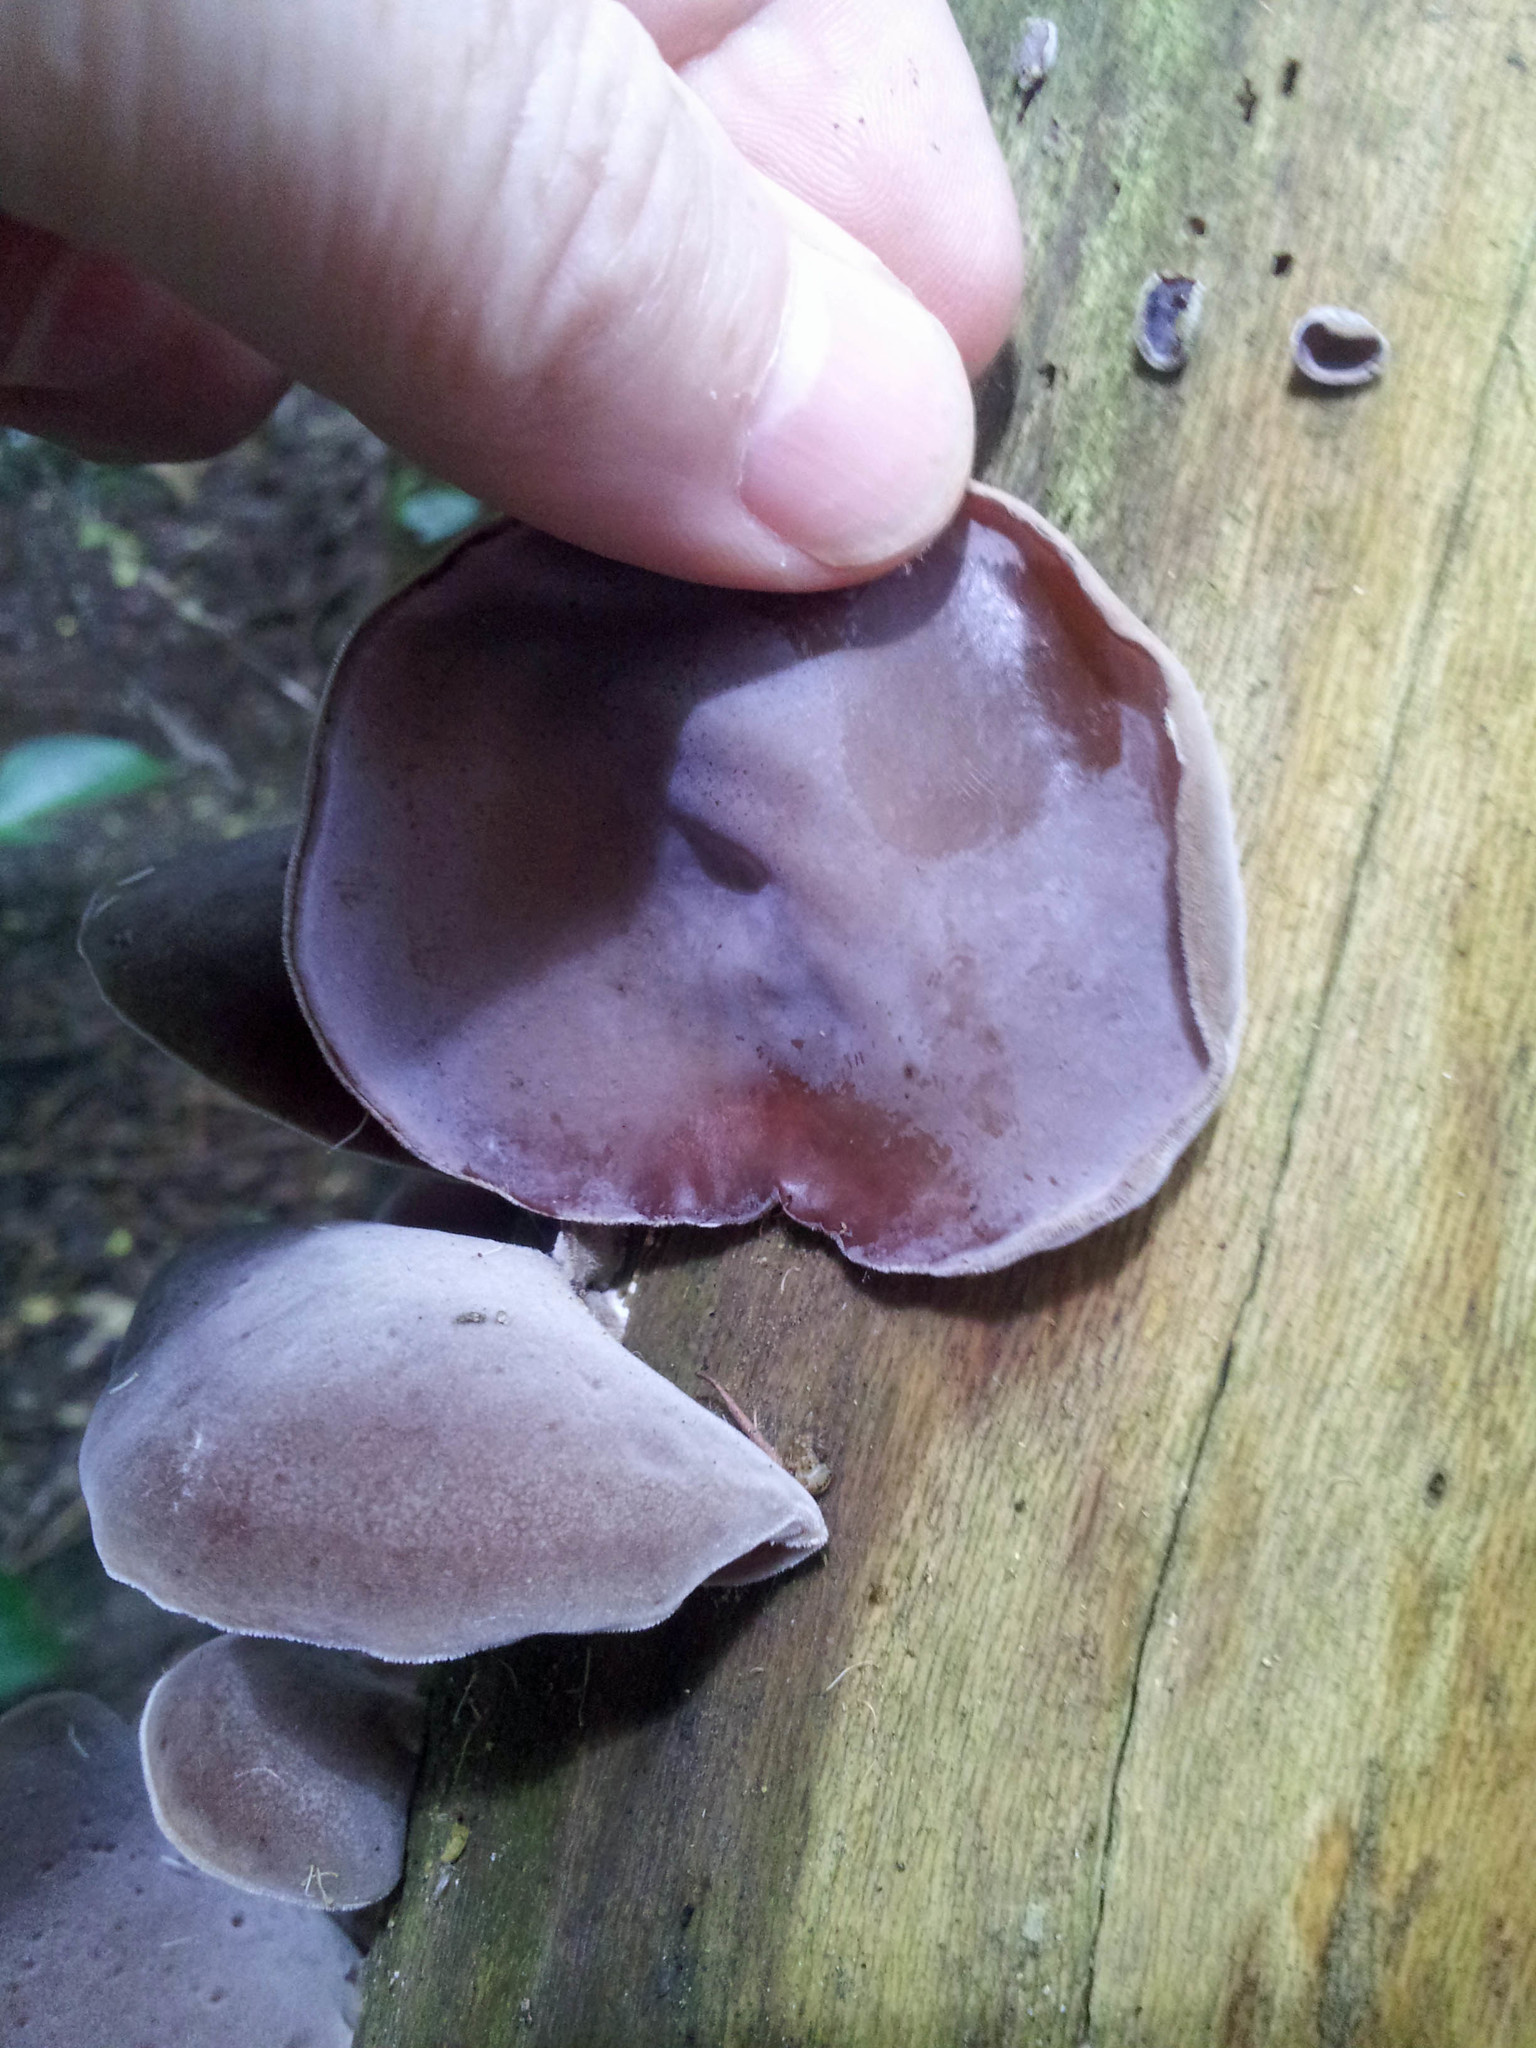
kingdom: Fungi
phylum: Basidiomycota
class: Agaricomycetes
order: Auriculariales
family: Auriculariaceae
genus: Auricularia
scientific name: Auricularia cornea
